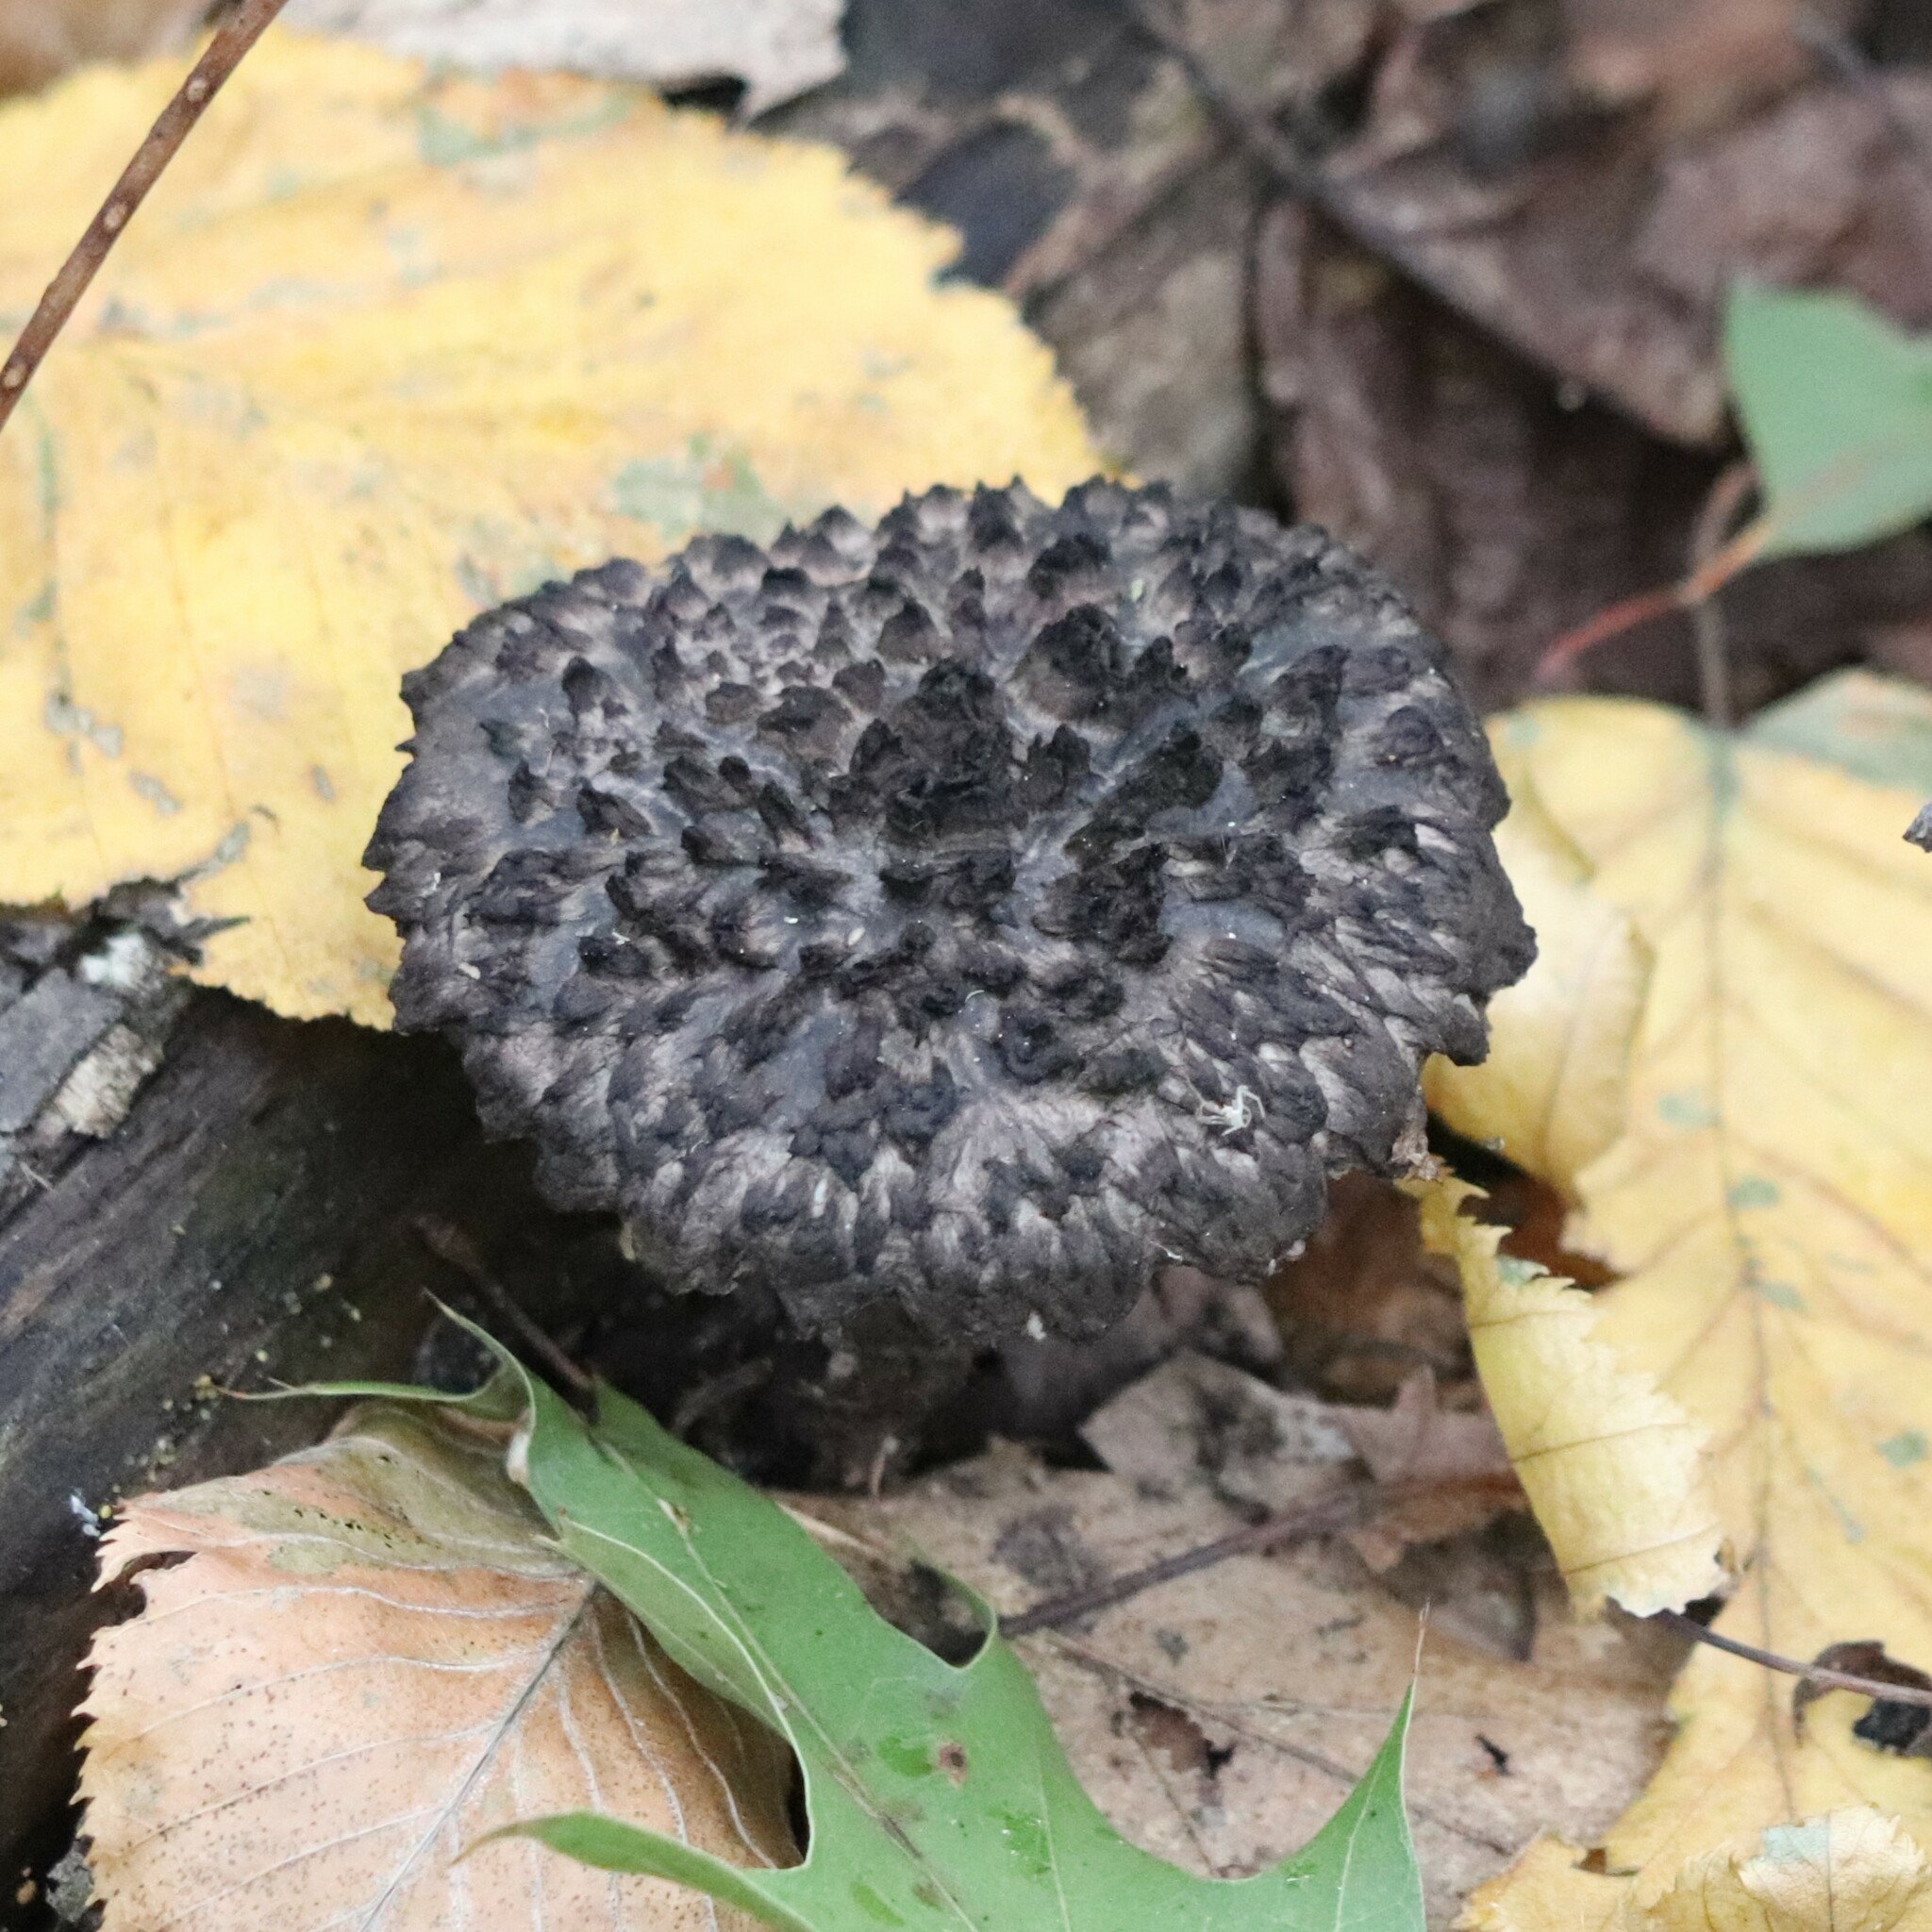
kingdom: Fungi
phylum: Basidiomycota
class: Agaricomycetes
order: Boletales
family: Boletaceae
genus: Strobilomyces
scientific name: Strobilomyces strobilaceus
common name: Old man of the woods
